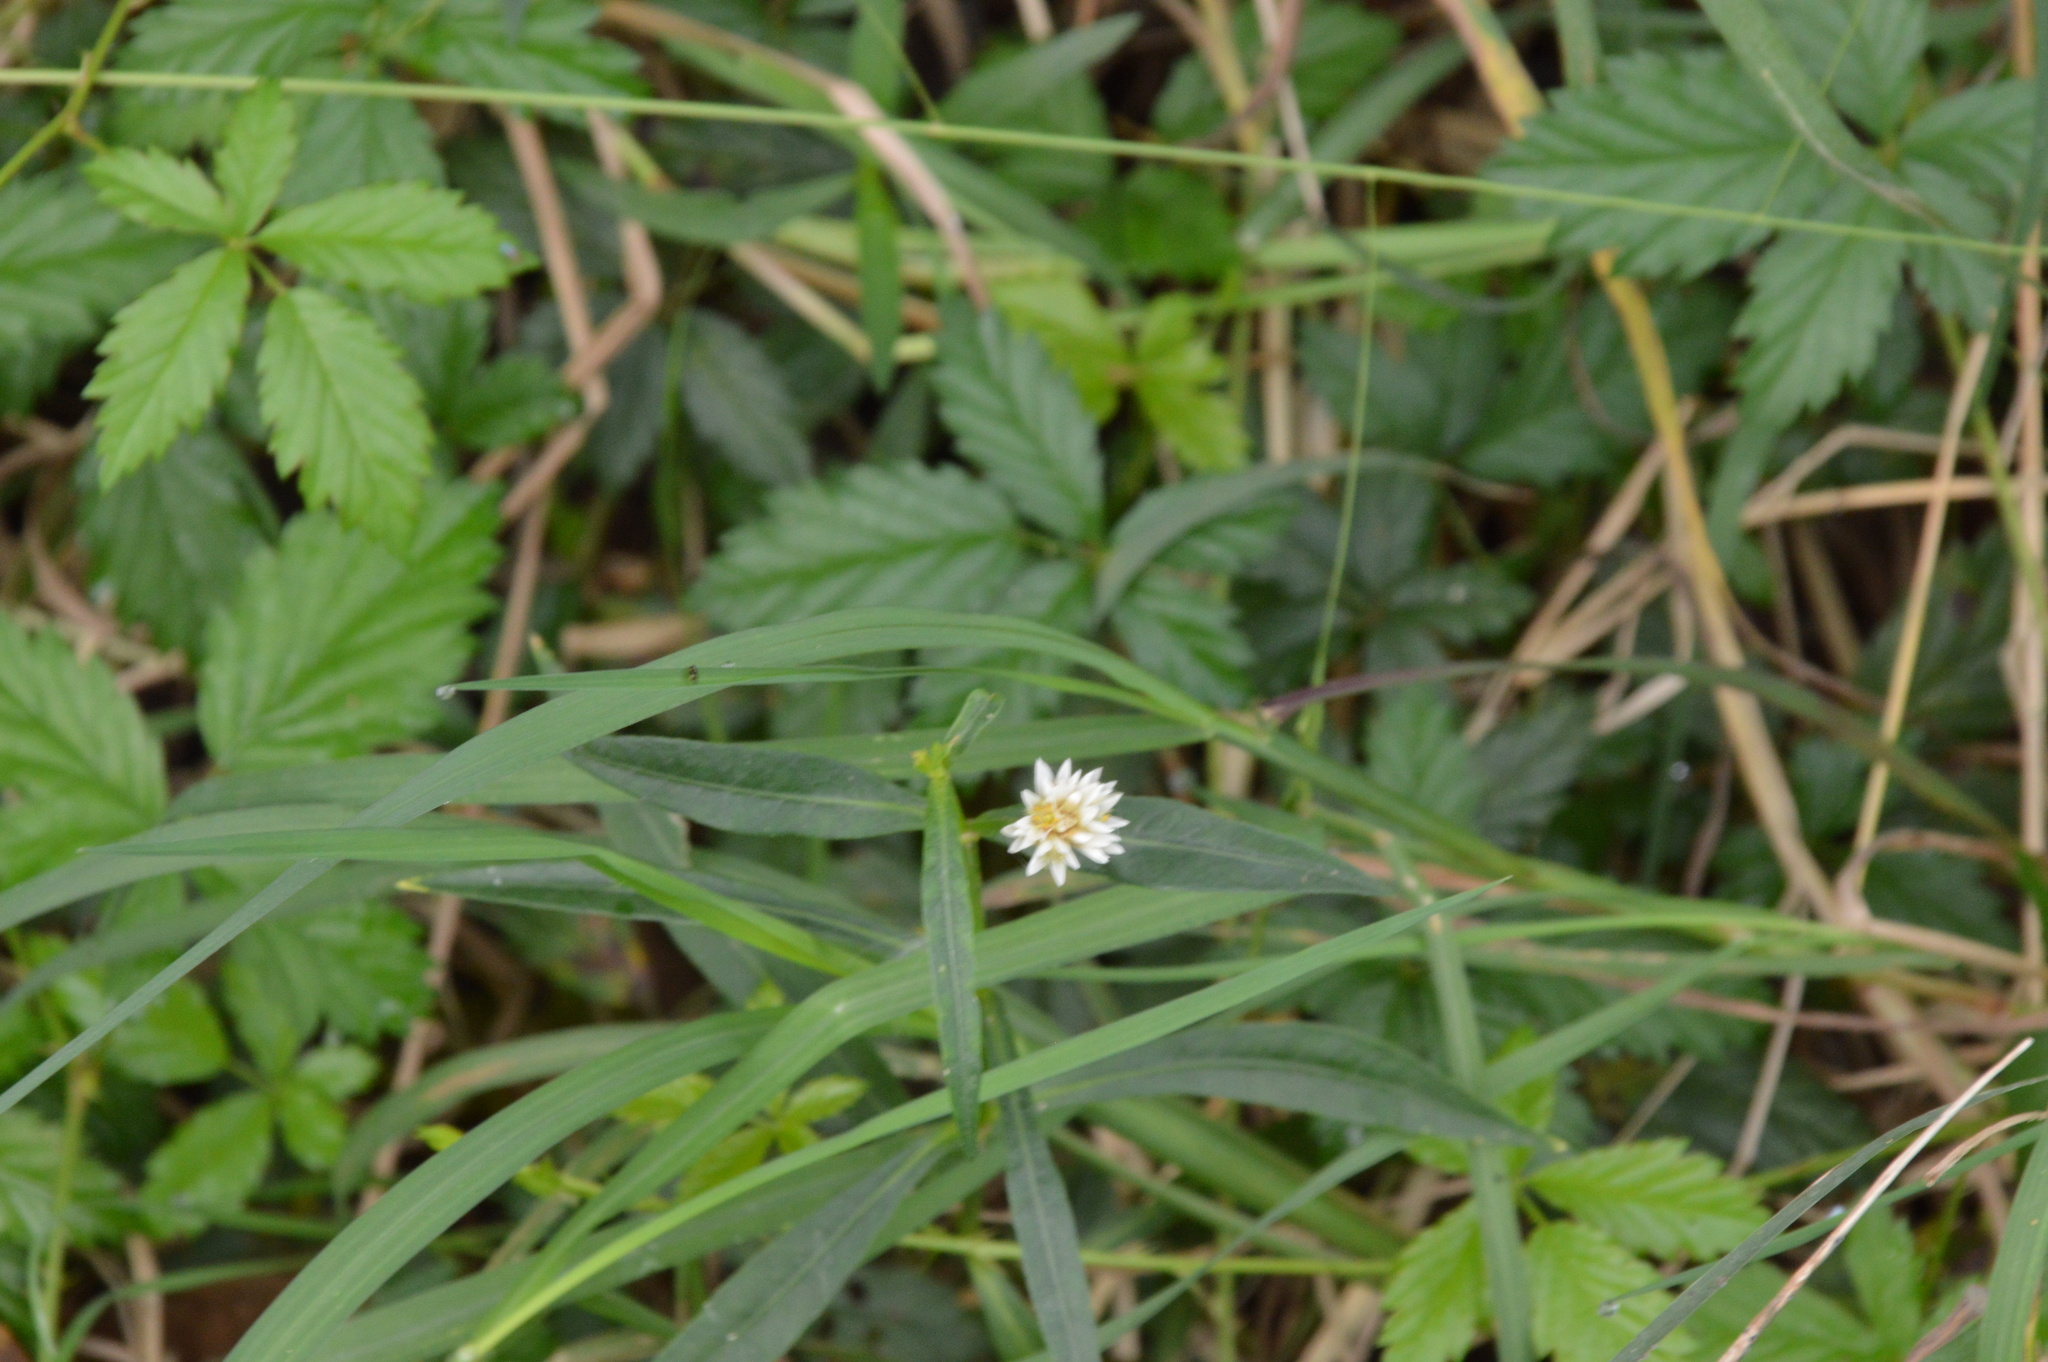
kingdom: Plantae
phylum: Tracheophyta
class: Magnoliopsida
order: Caryophyllales
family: Amaranthaceae
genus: Alternanthera
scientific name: Alternanthera philoxeroides
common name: Alligatorweed
